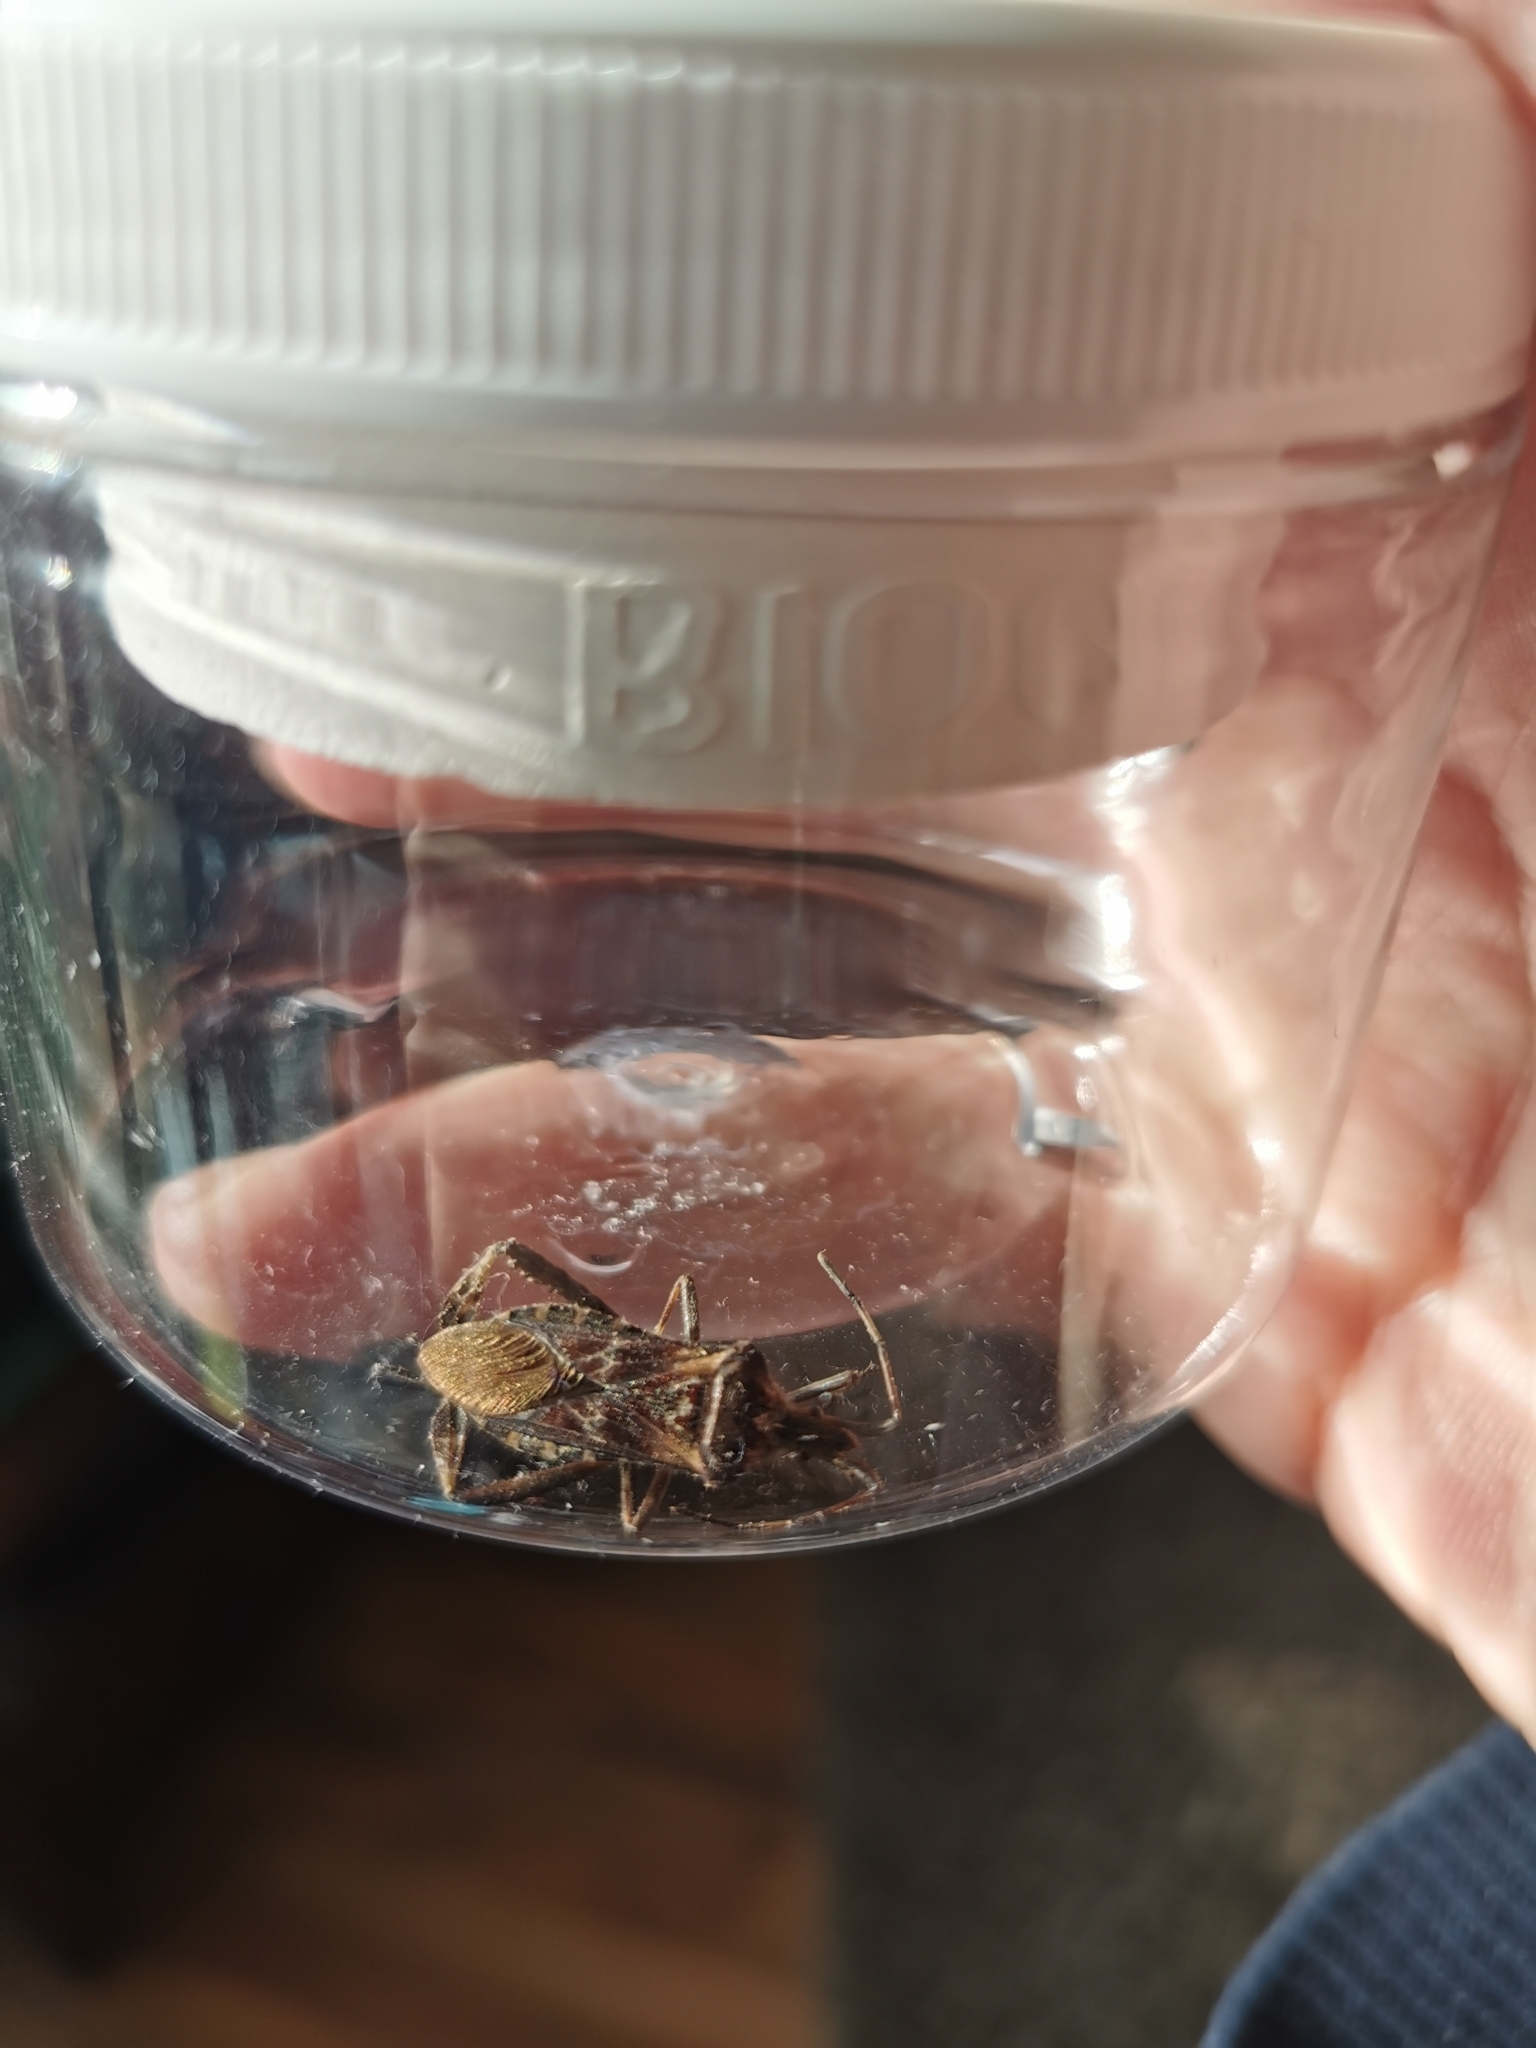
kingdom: Animalia
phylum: Arthropoda
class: Insecta
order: Hemiptera
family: Coreidae
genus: Leptoglossus
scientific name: Leptoglossus occidentalis
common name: Western conifer-seed bug
